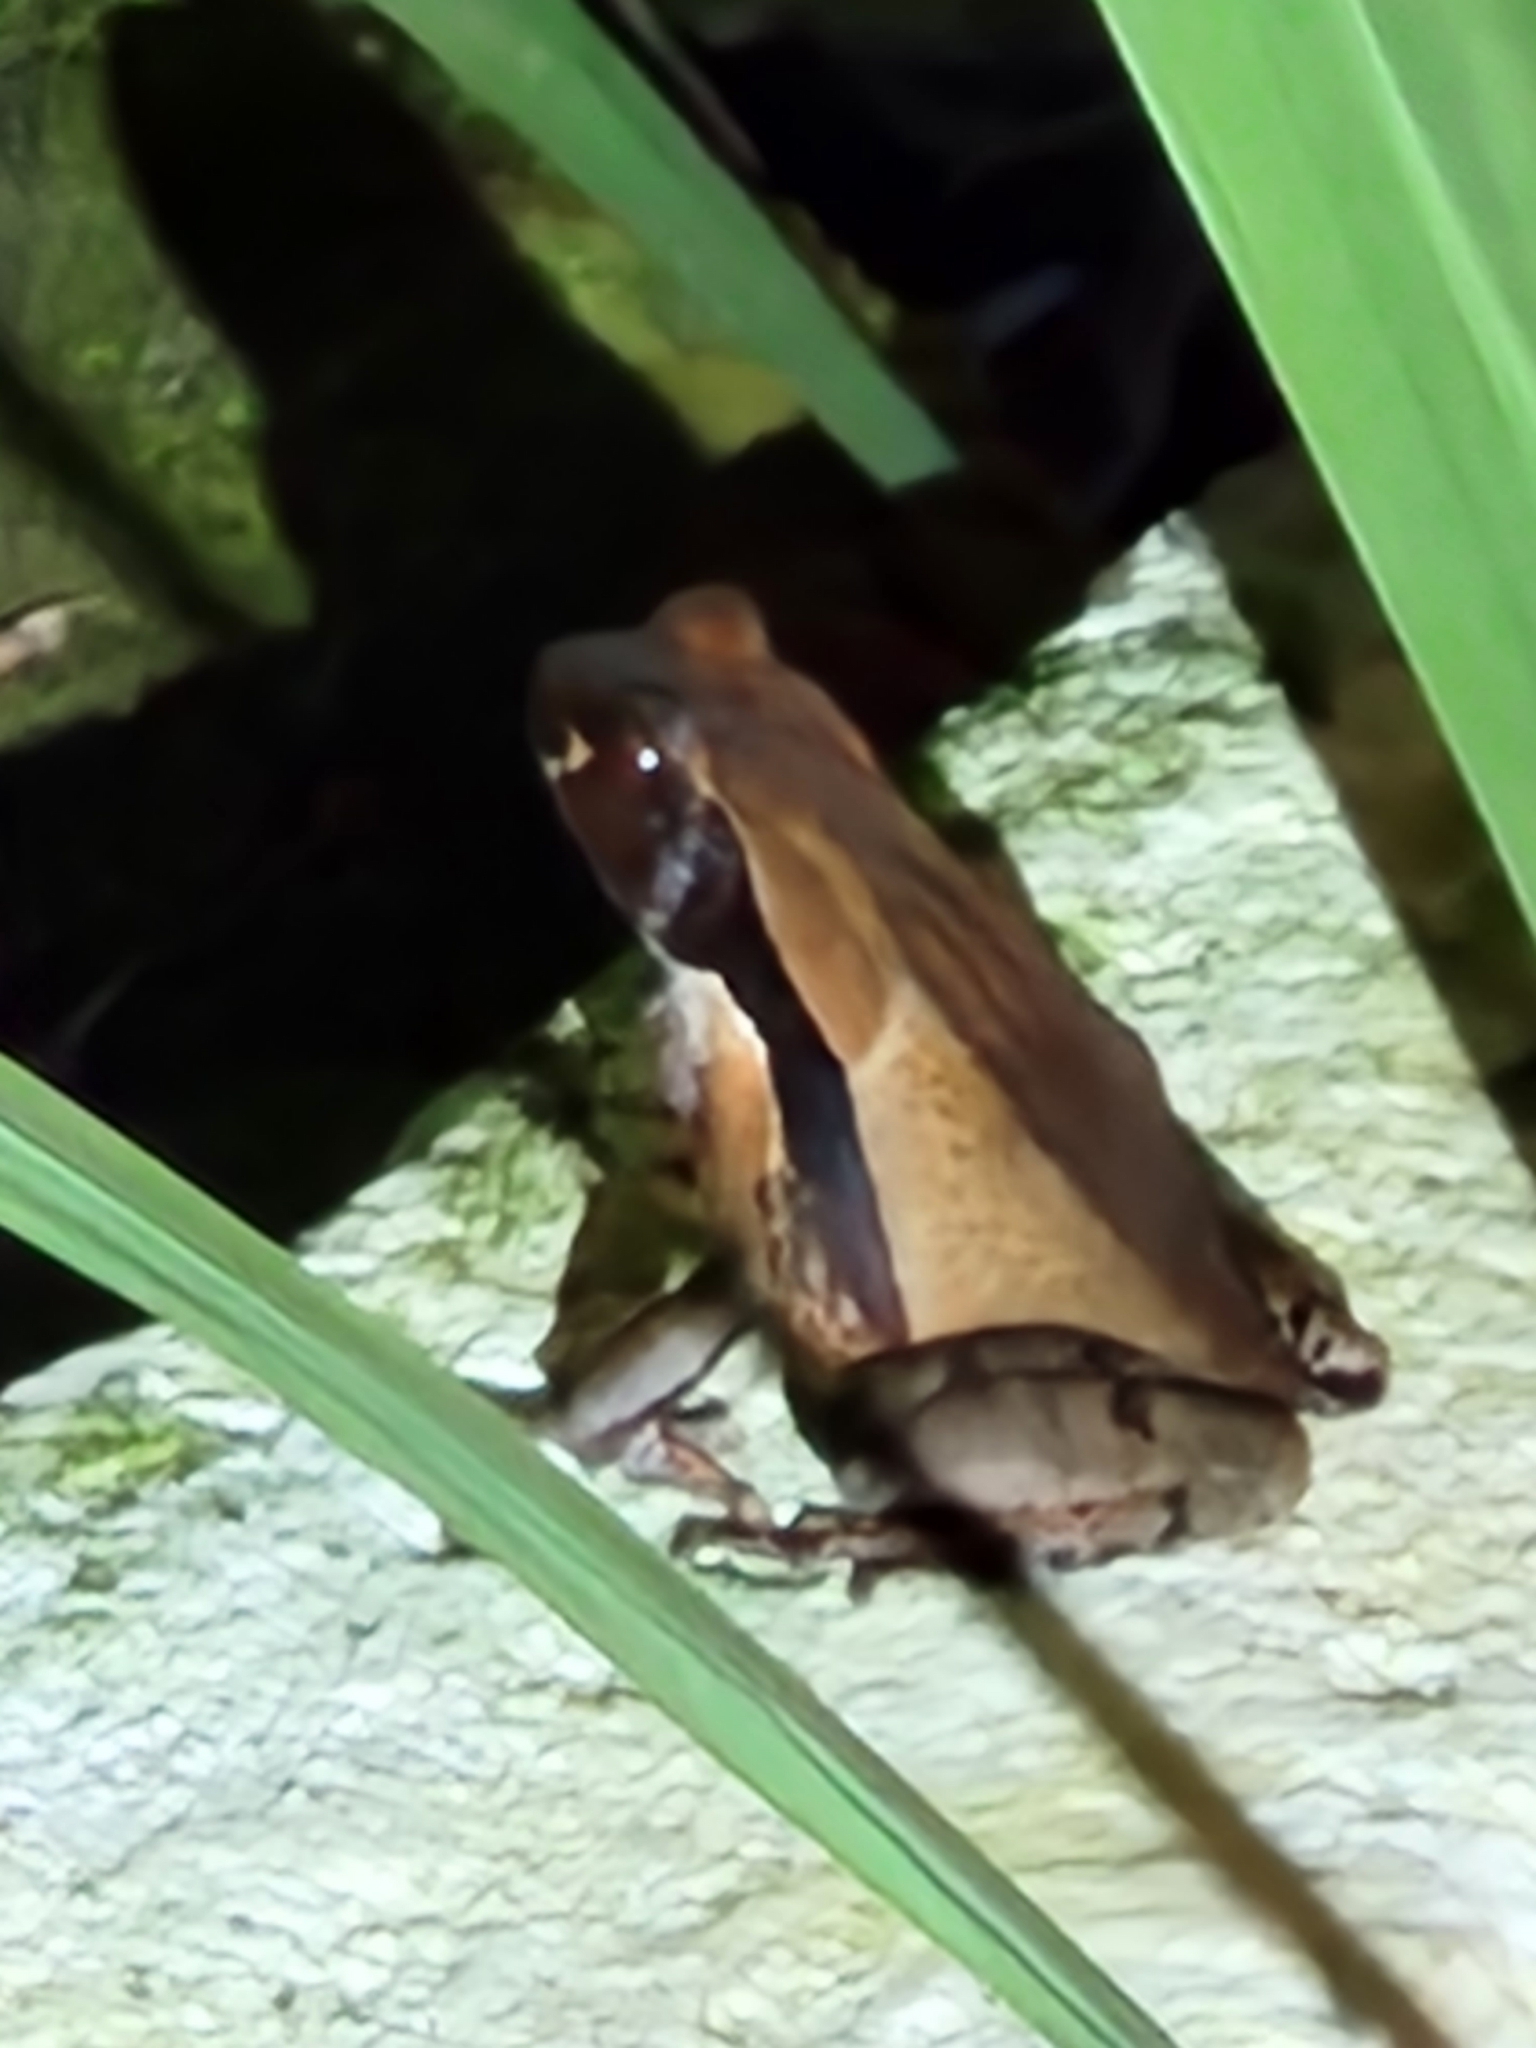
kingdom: Animalia
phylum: Chordata
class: Amphibia
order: Anura
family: Bufonidae
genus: Rhaebo
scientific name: Rhaebo haematiticus
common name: Truando toad
